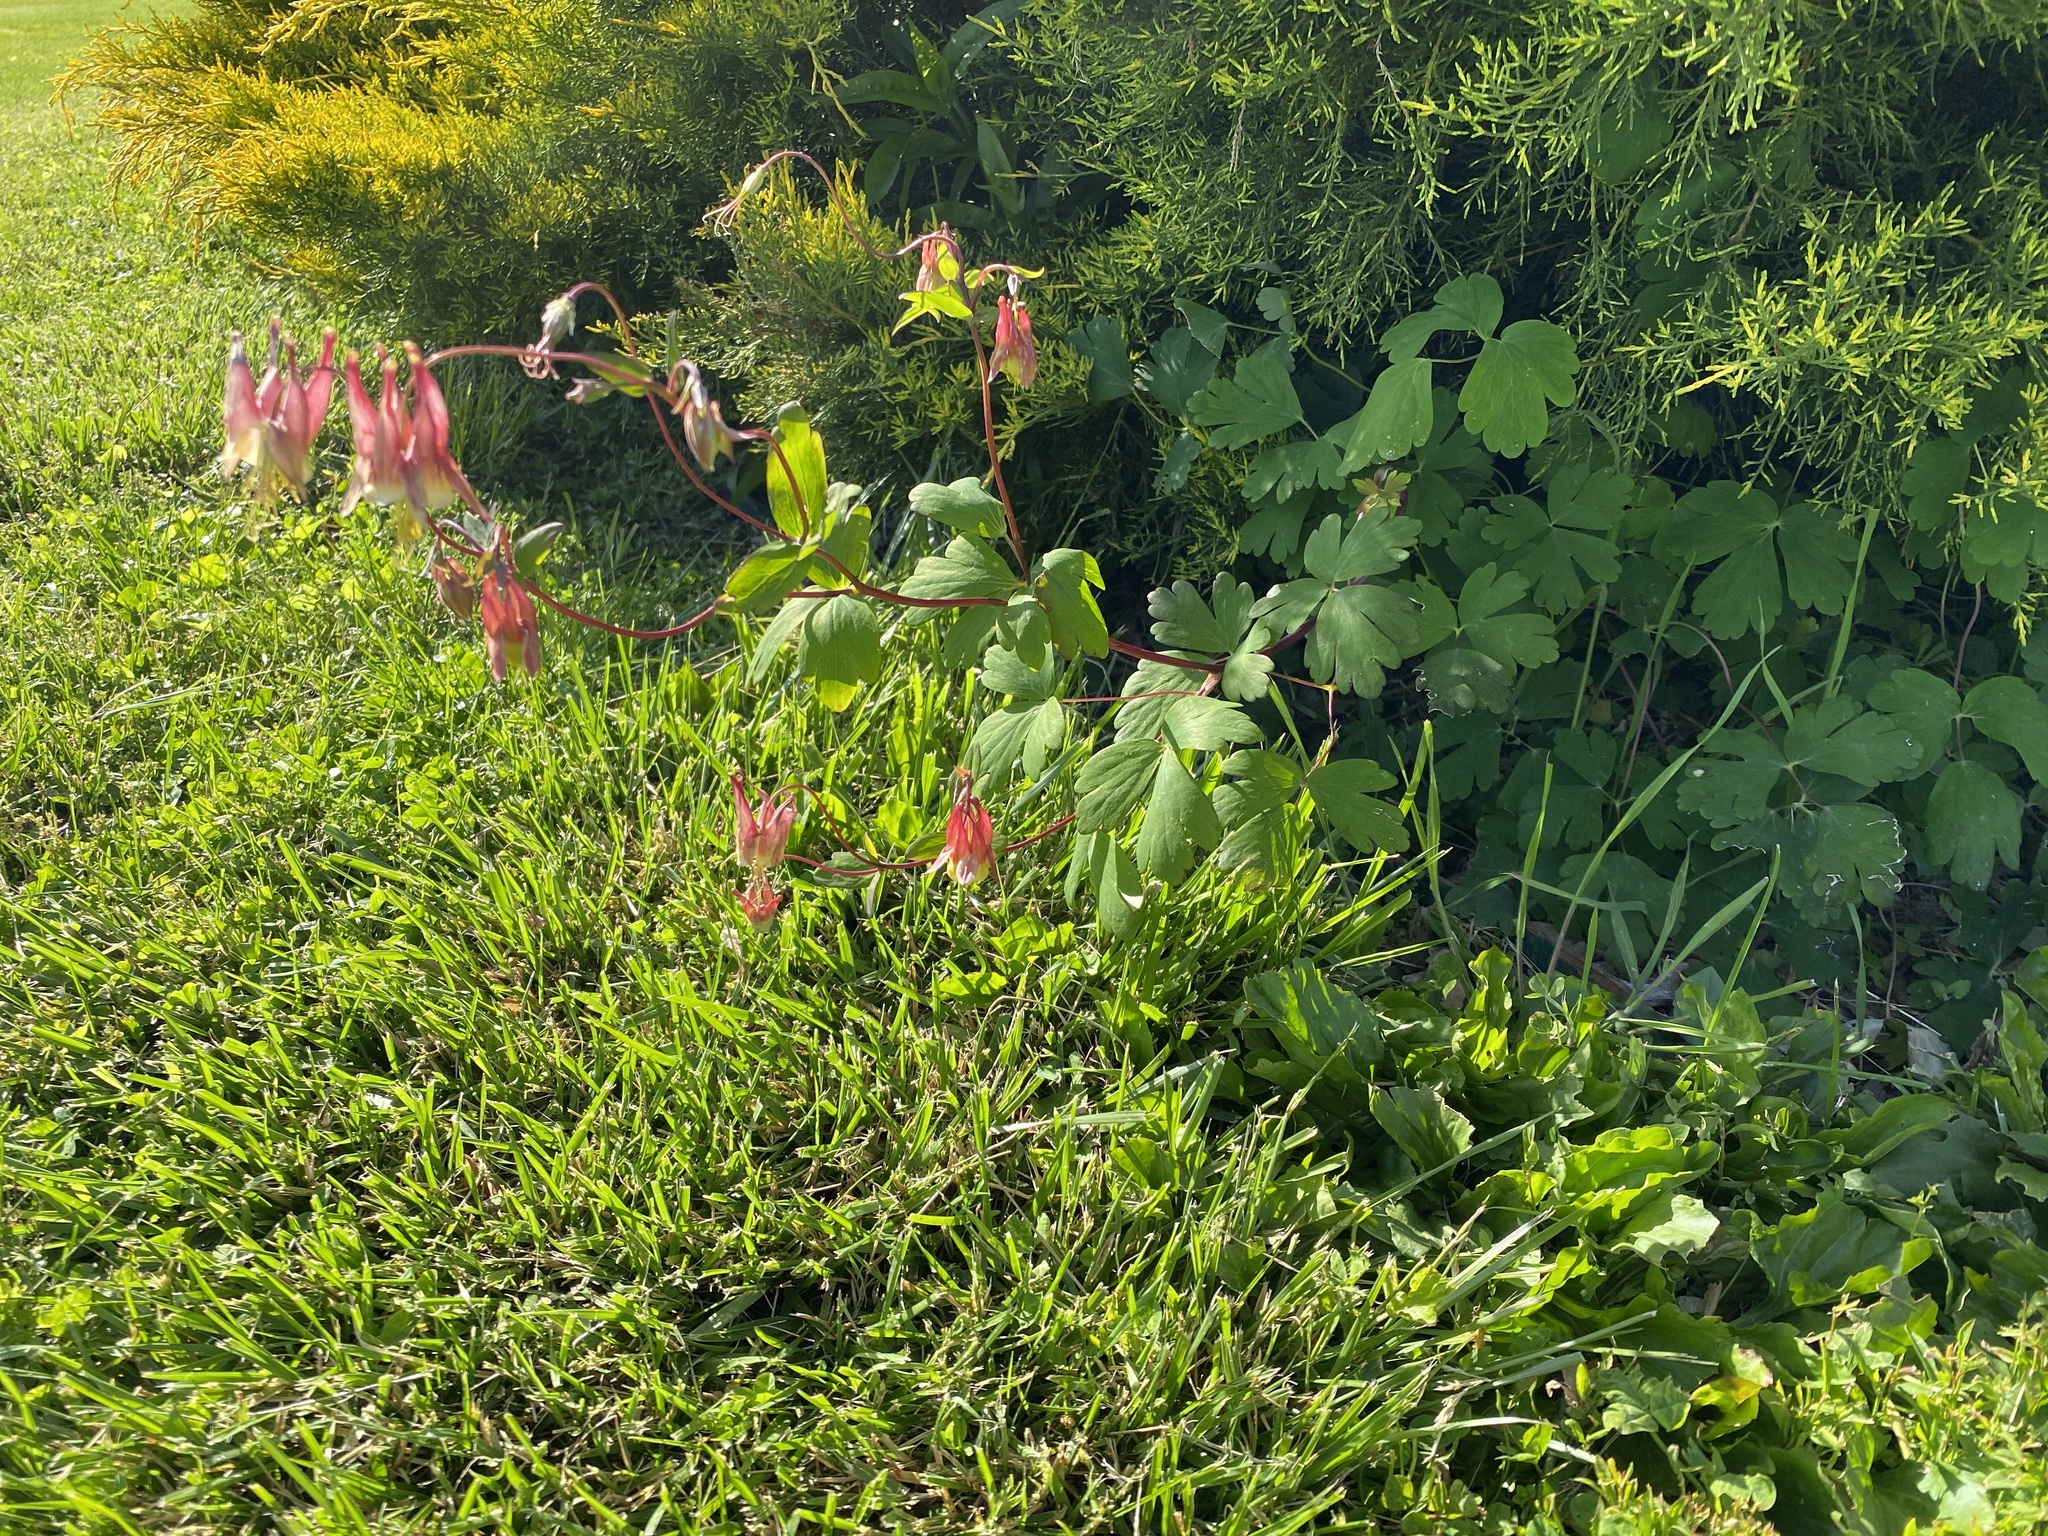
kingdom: Plantae
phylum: Tracheophyta
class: Magnoliopsida
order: Ranunculales
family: Ranunculaceae
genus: Aquilegia
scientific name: Aquilegia canadensis
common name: American columbine
